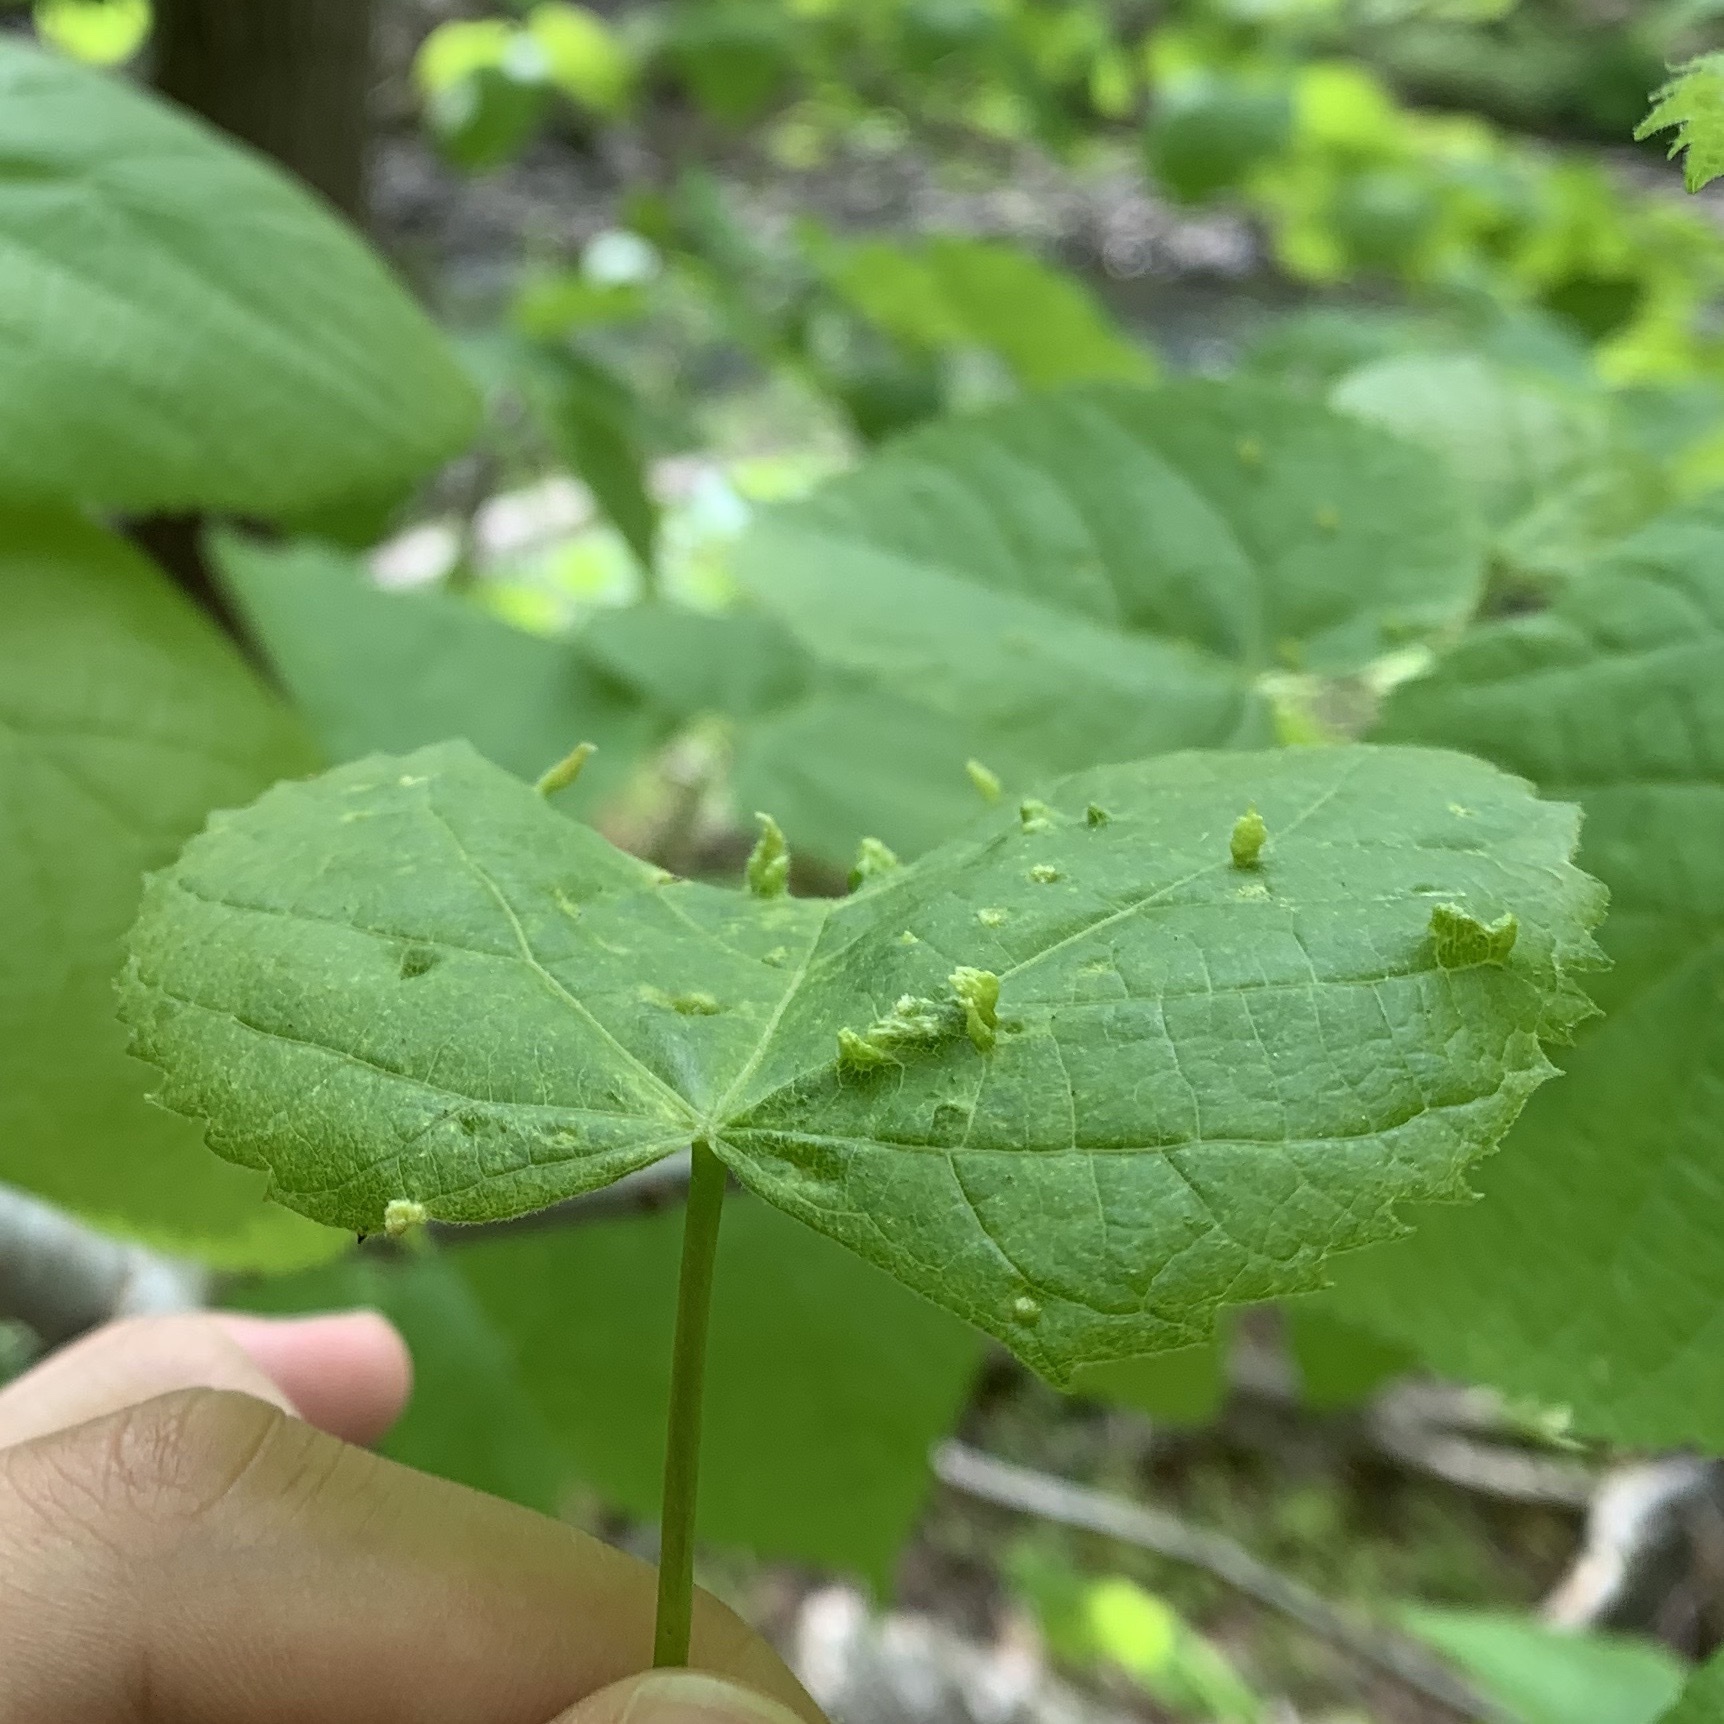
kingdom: Animalia
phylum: Arthropoda
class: Arachnida
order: Trombidiformes
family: Eriophyidae
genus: Eriophyes
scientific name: Eriophyes tiliae
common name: Red nail gall mite
